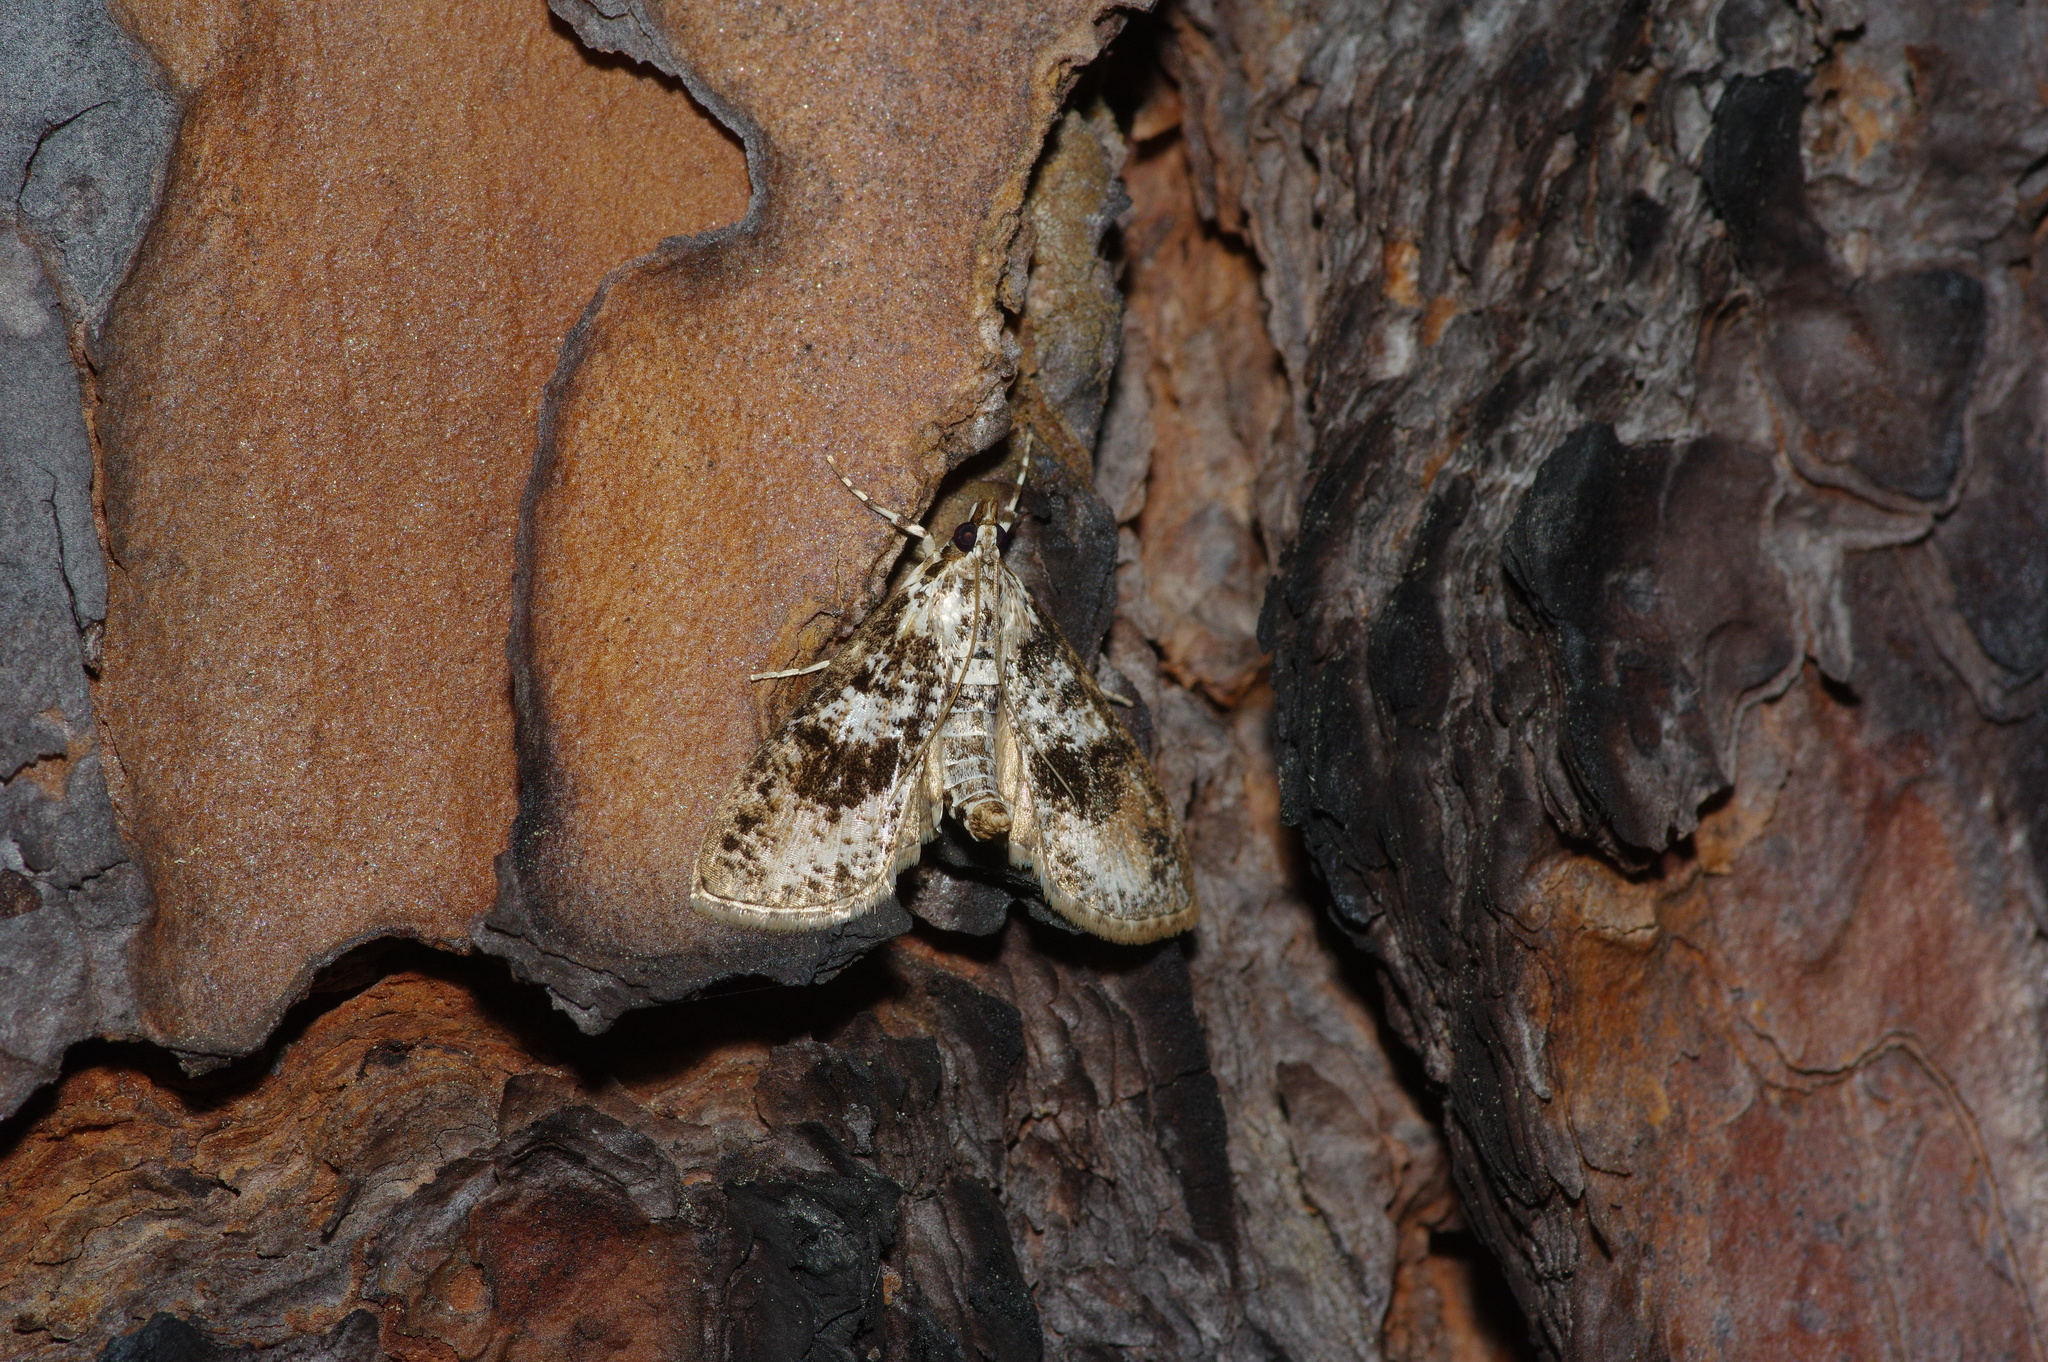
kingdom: Animalia
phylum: Arthropoda
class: Insecta
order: Lepidoptera
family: Crambidae
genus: Palpita
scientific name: Palpita magniferalis
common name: Splendid palpita moth
